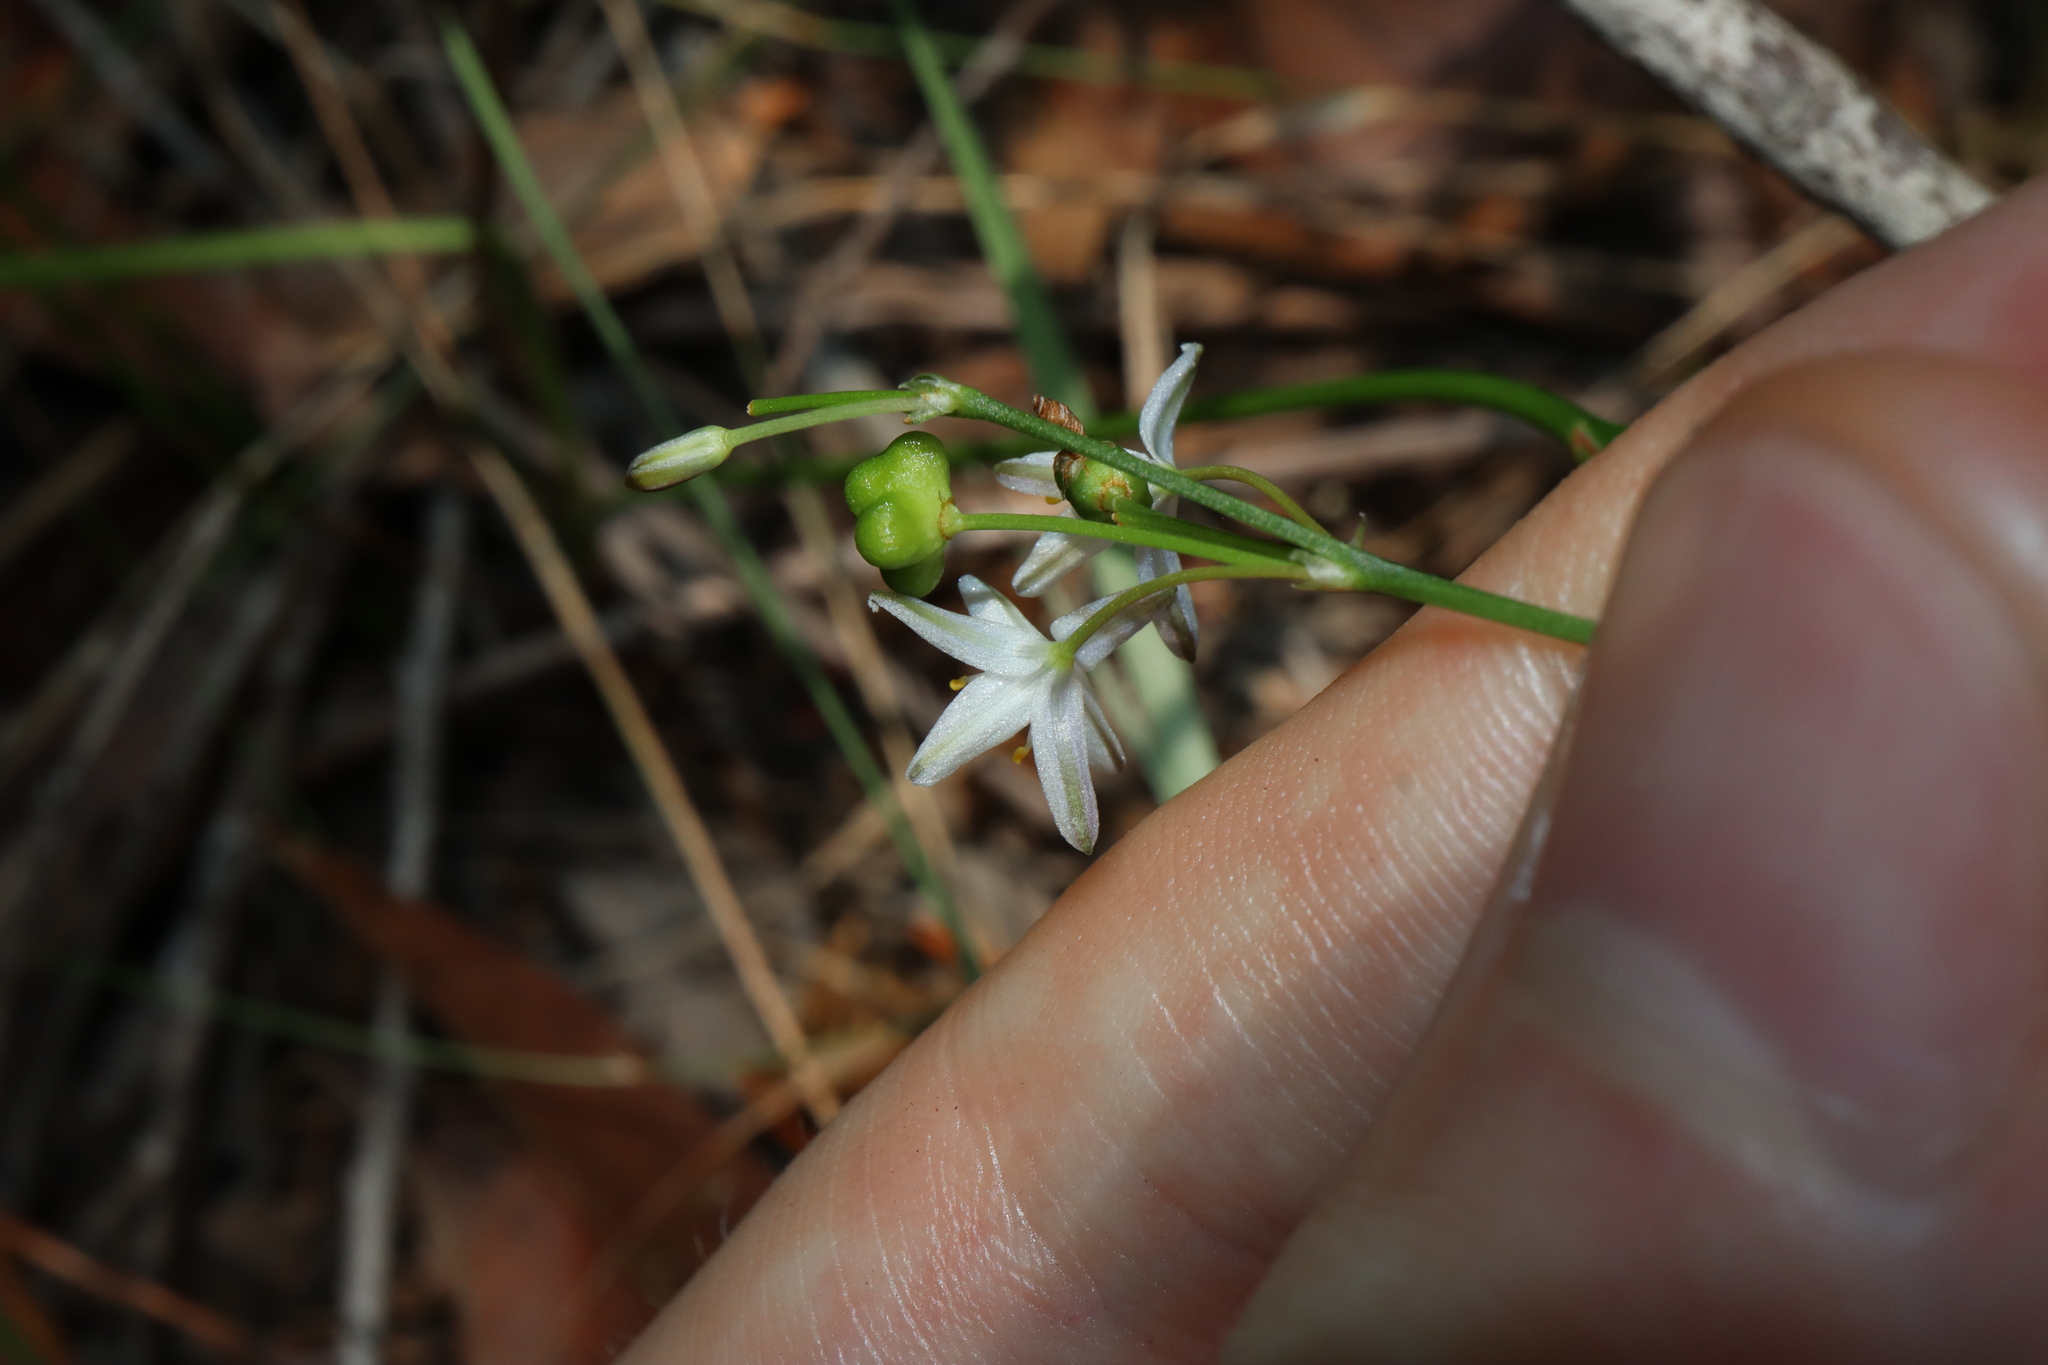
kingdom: Plantae
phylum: Tracheophyta
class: Liliopsida
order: Asparagales
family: Asphodelaceae
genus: Caesia
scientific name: Caesia parviflora
